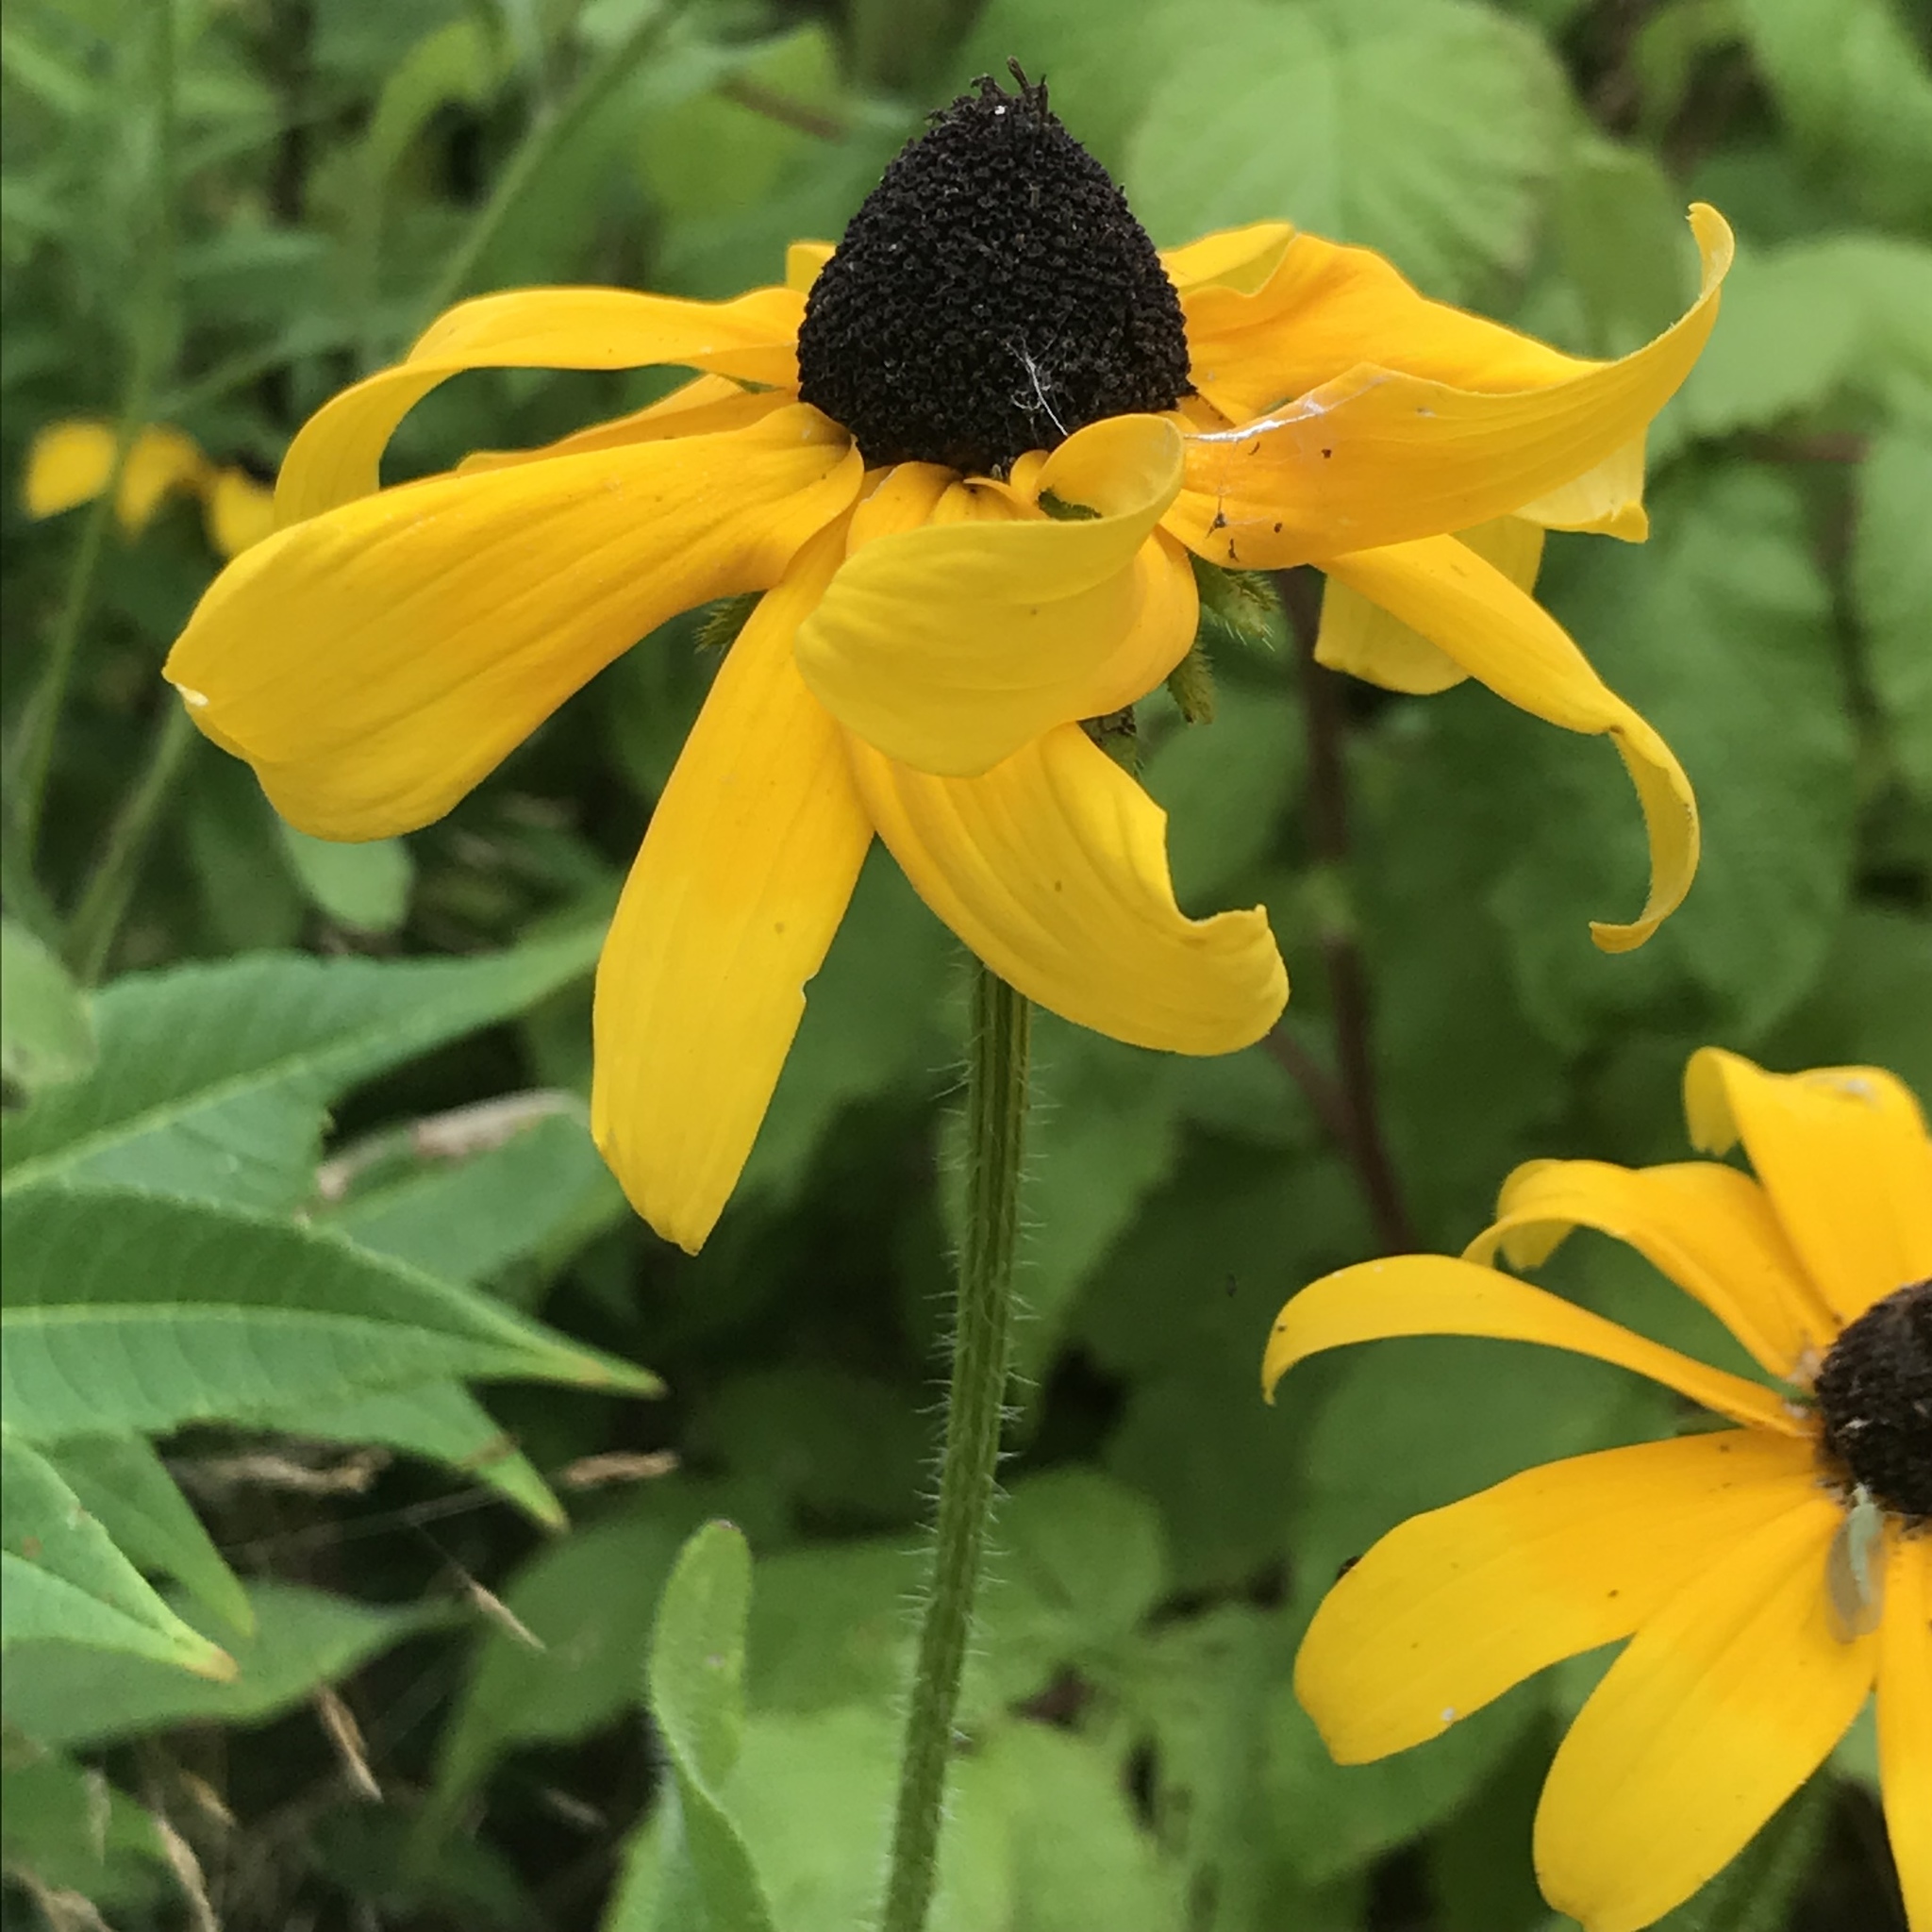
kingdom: Plantae
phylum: Tracheophyta
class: Magnoliopsida
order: Asterales
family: Asteraceae
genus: Rudbeckia
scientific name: Rudbeckia hirta
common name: Black-eyed-susan
